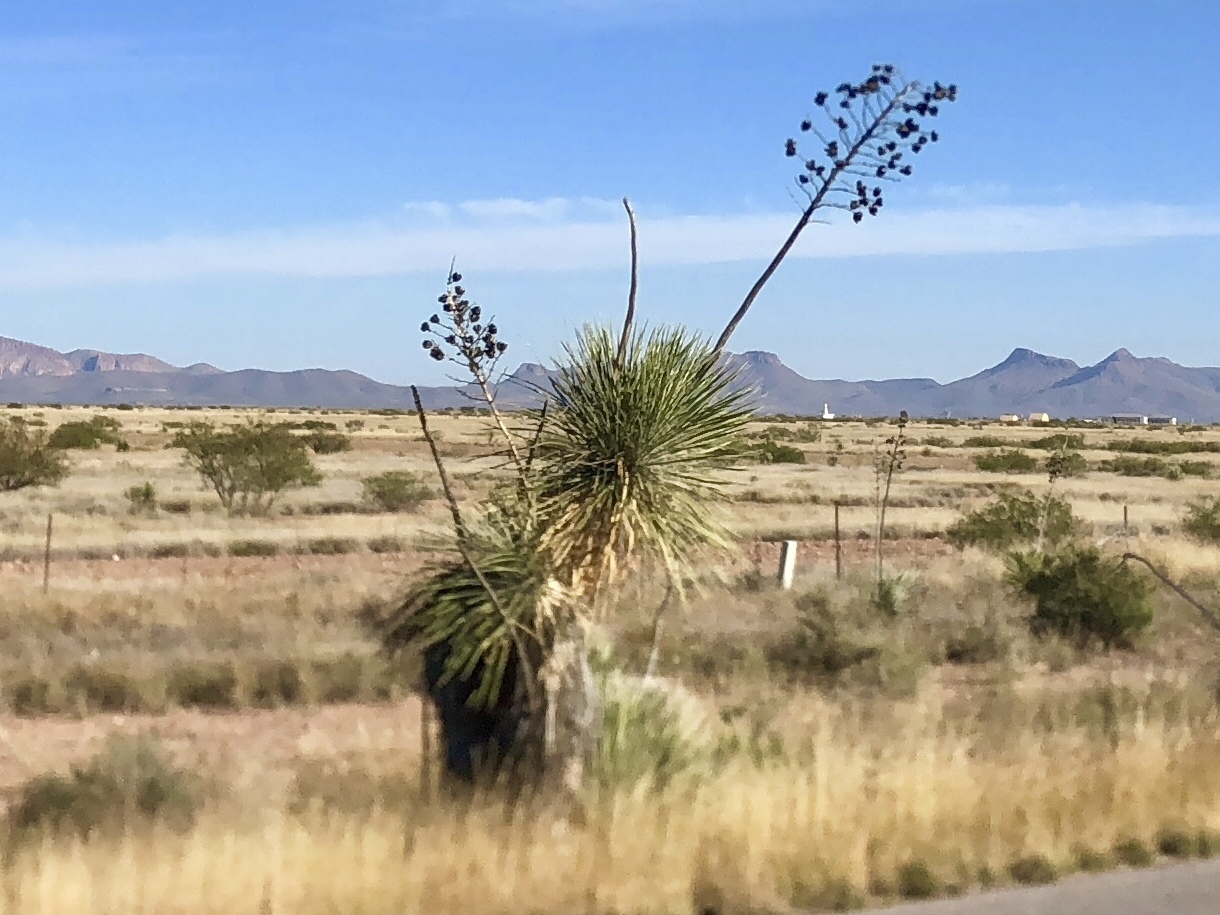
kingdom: Plantae
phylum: Tracheophyta
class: Liliopsida
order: Asparagales
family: Asparagaceae
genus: Yucca
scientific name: Yucca elata
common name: Palmella
